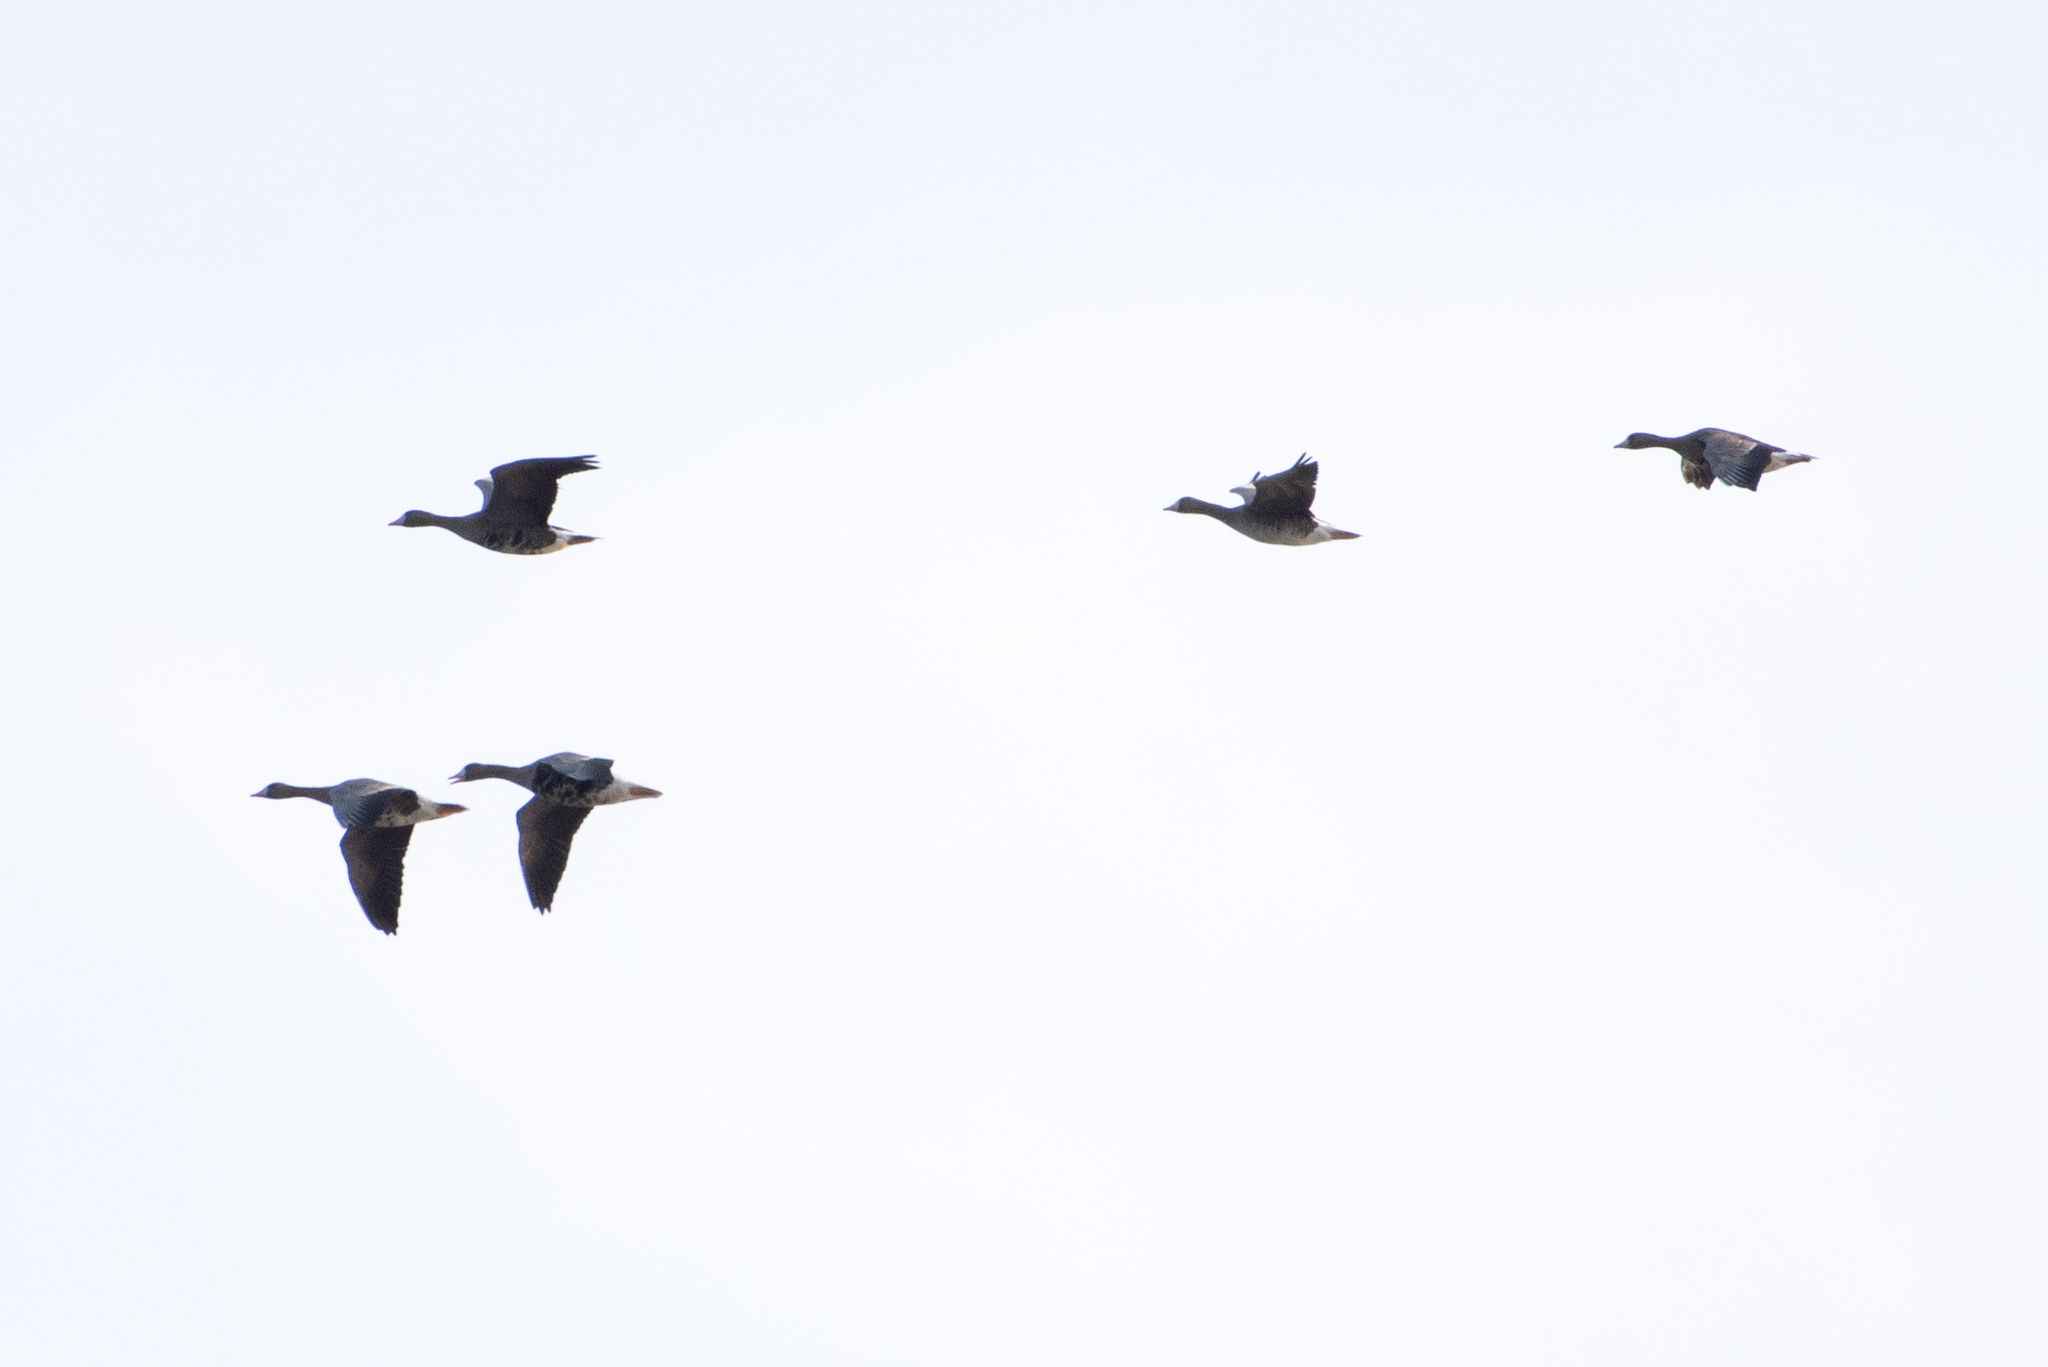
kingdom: Animalia
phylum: Chordata
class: Aves
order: Anseriformes
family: Anatidae
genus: Anser
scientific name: Anser albifrons
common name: Greater white-fronted goose
